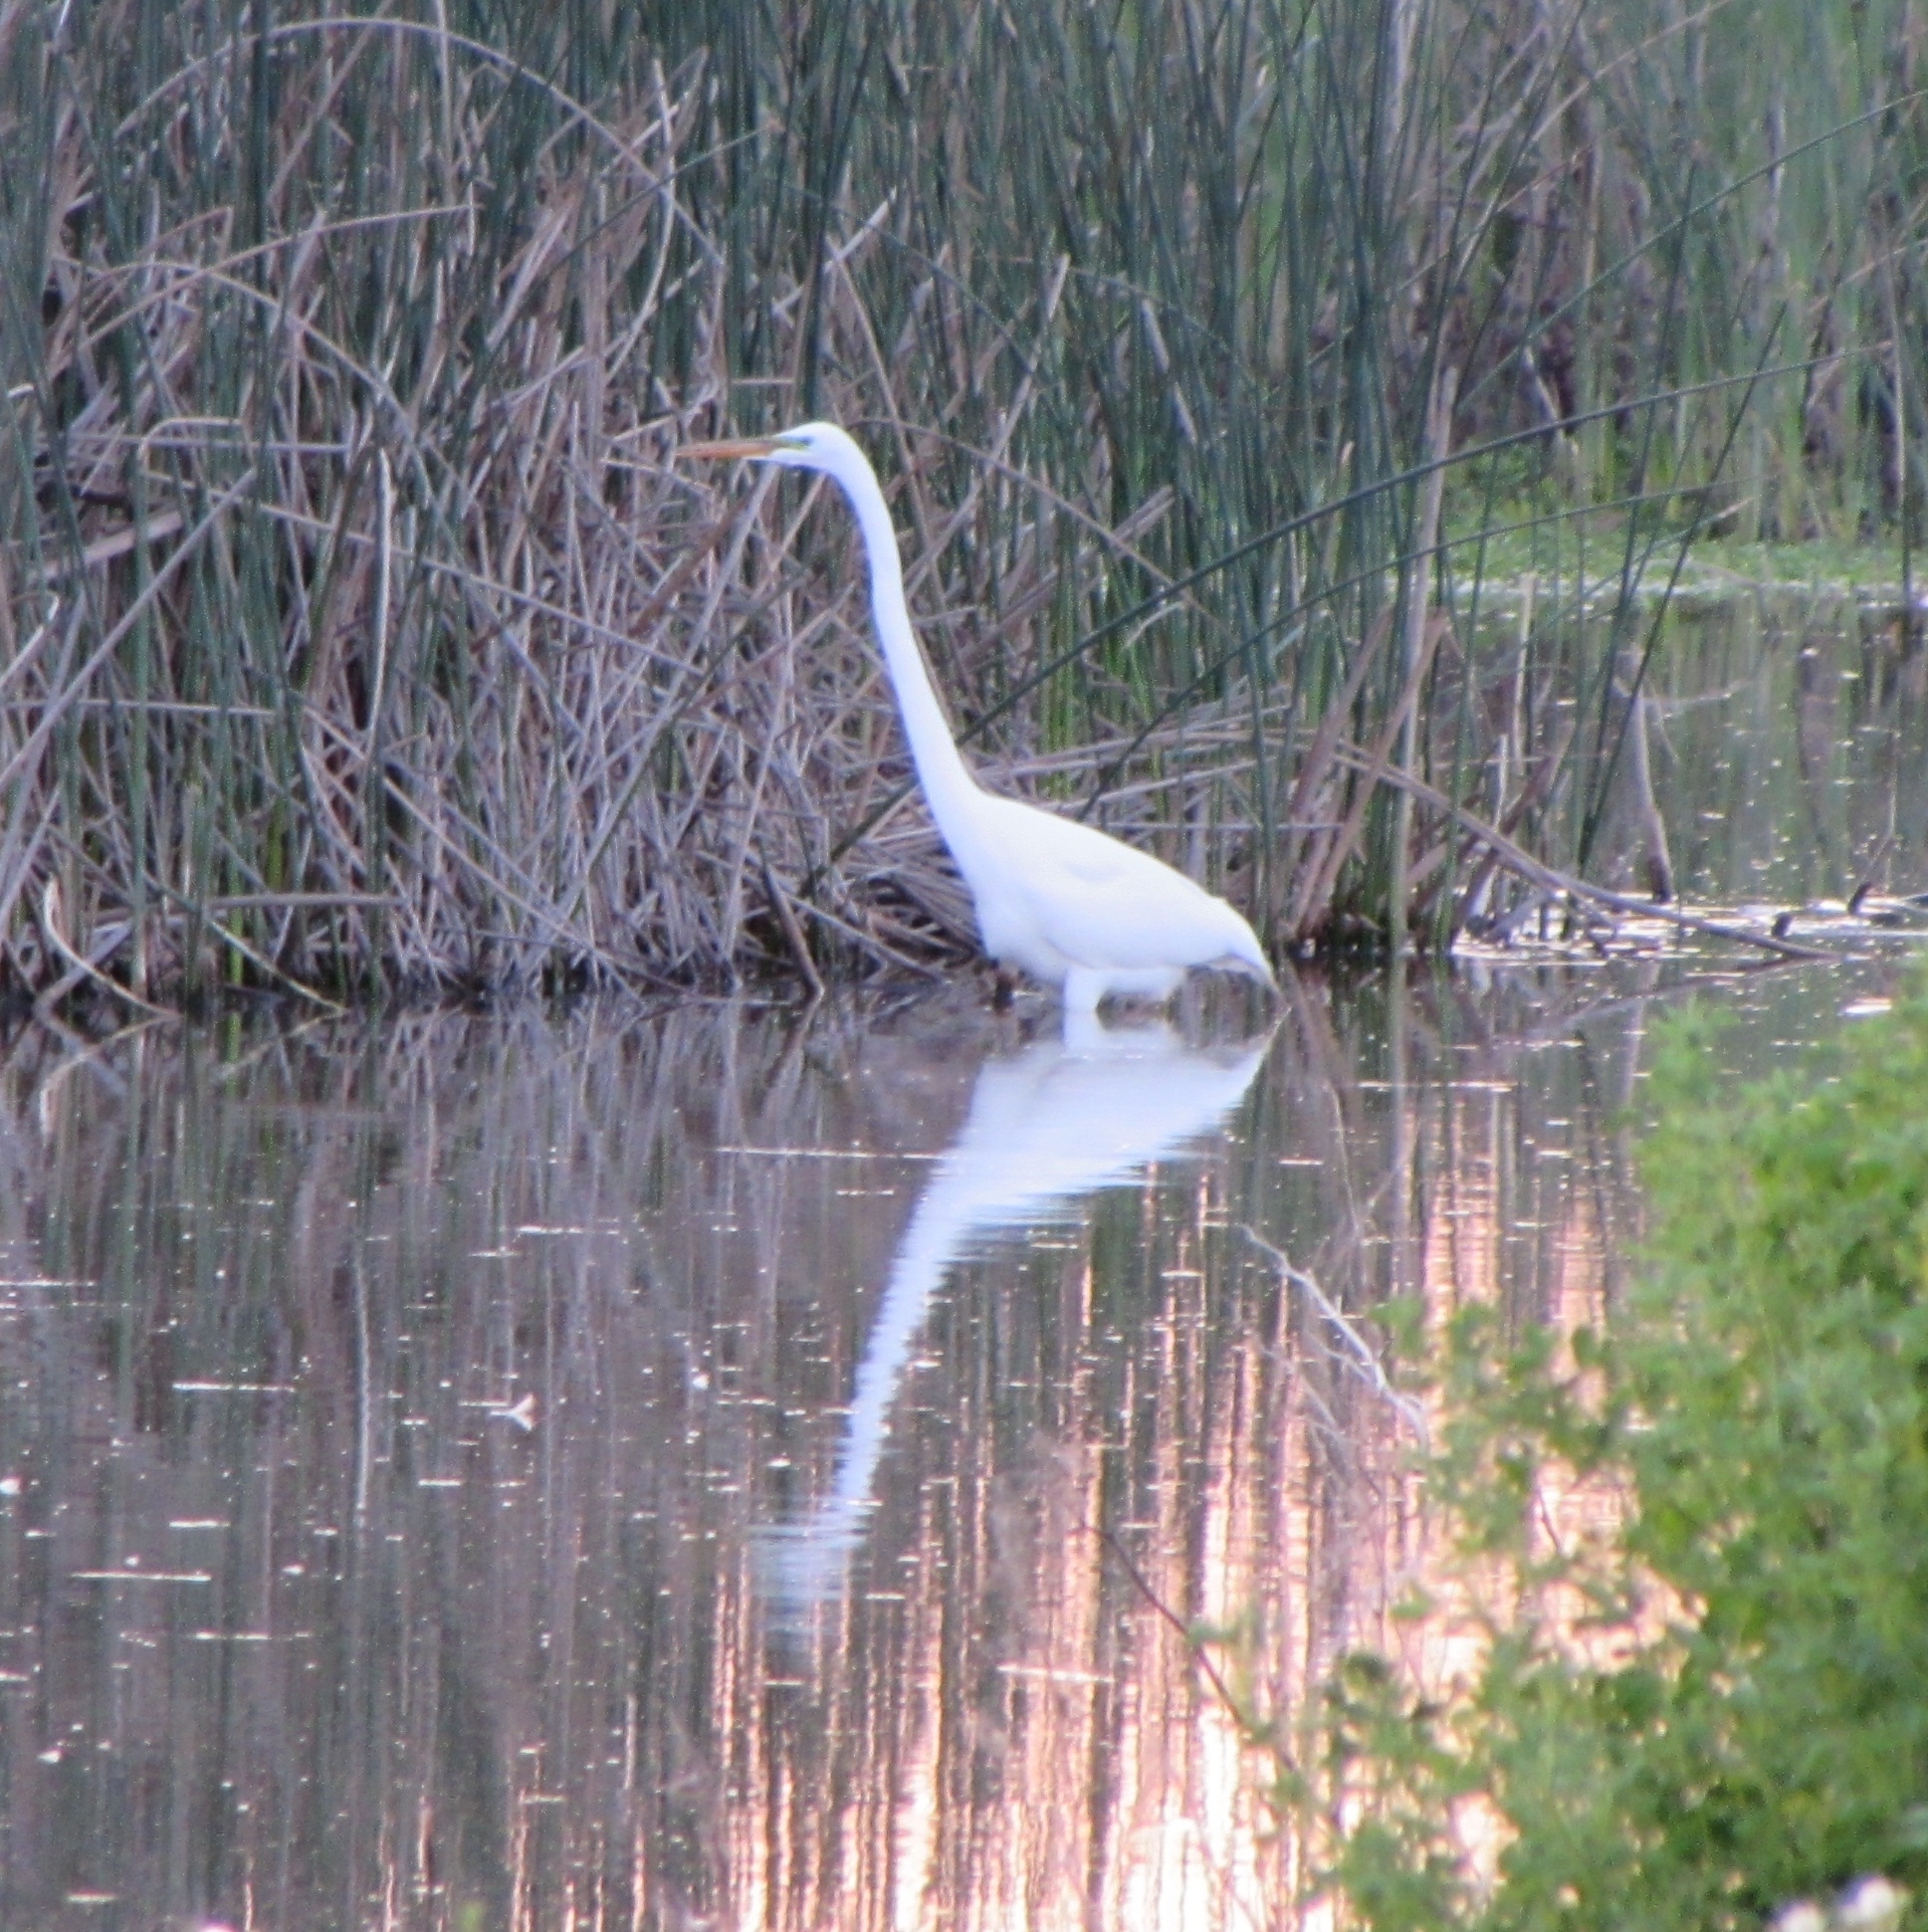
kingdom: Animalia
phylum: Chordata
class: Aves
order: Pelecaniformes
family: Ardeidae
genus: Ardea
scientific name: Ardea alba
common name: Great egret
